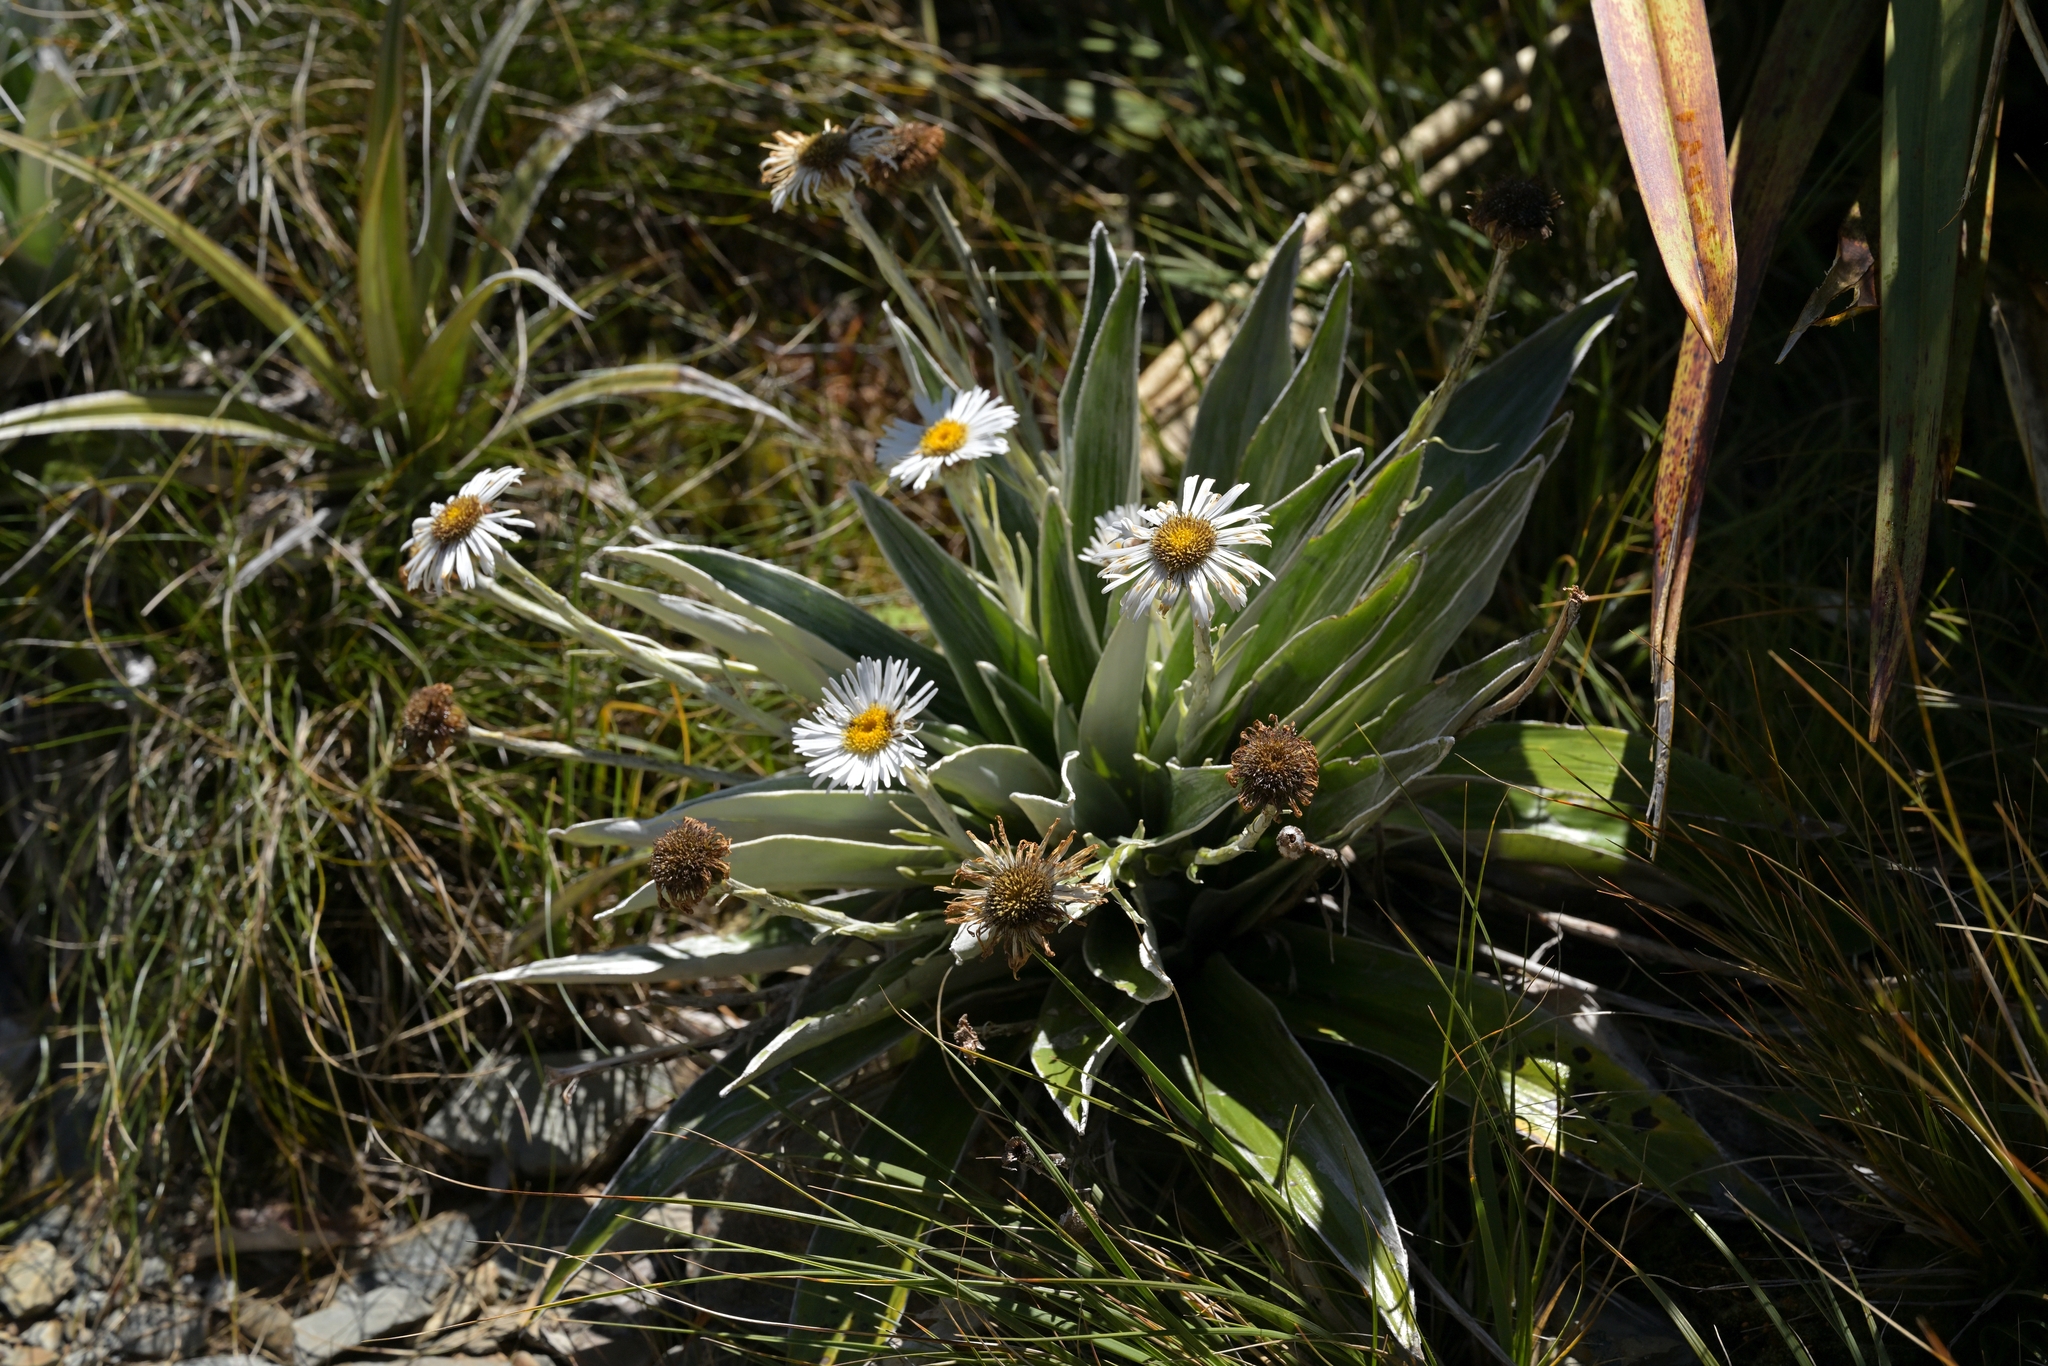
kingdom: Plantae
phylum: Tracheophyta
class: Magnoliopsida
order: Asterales
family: Asteraceae
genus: Celmisia
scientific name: Celmisia semicordata
